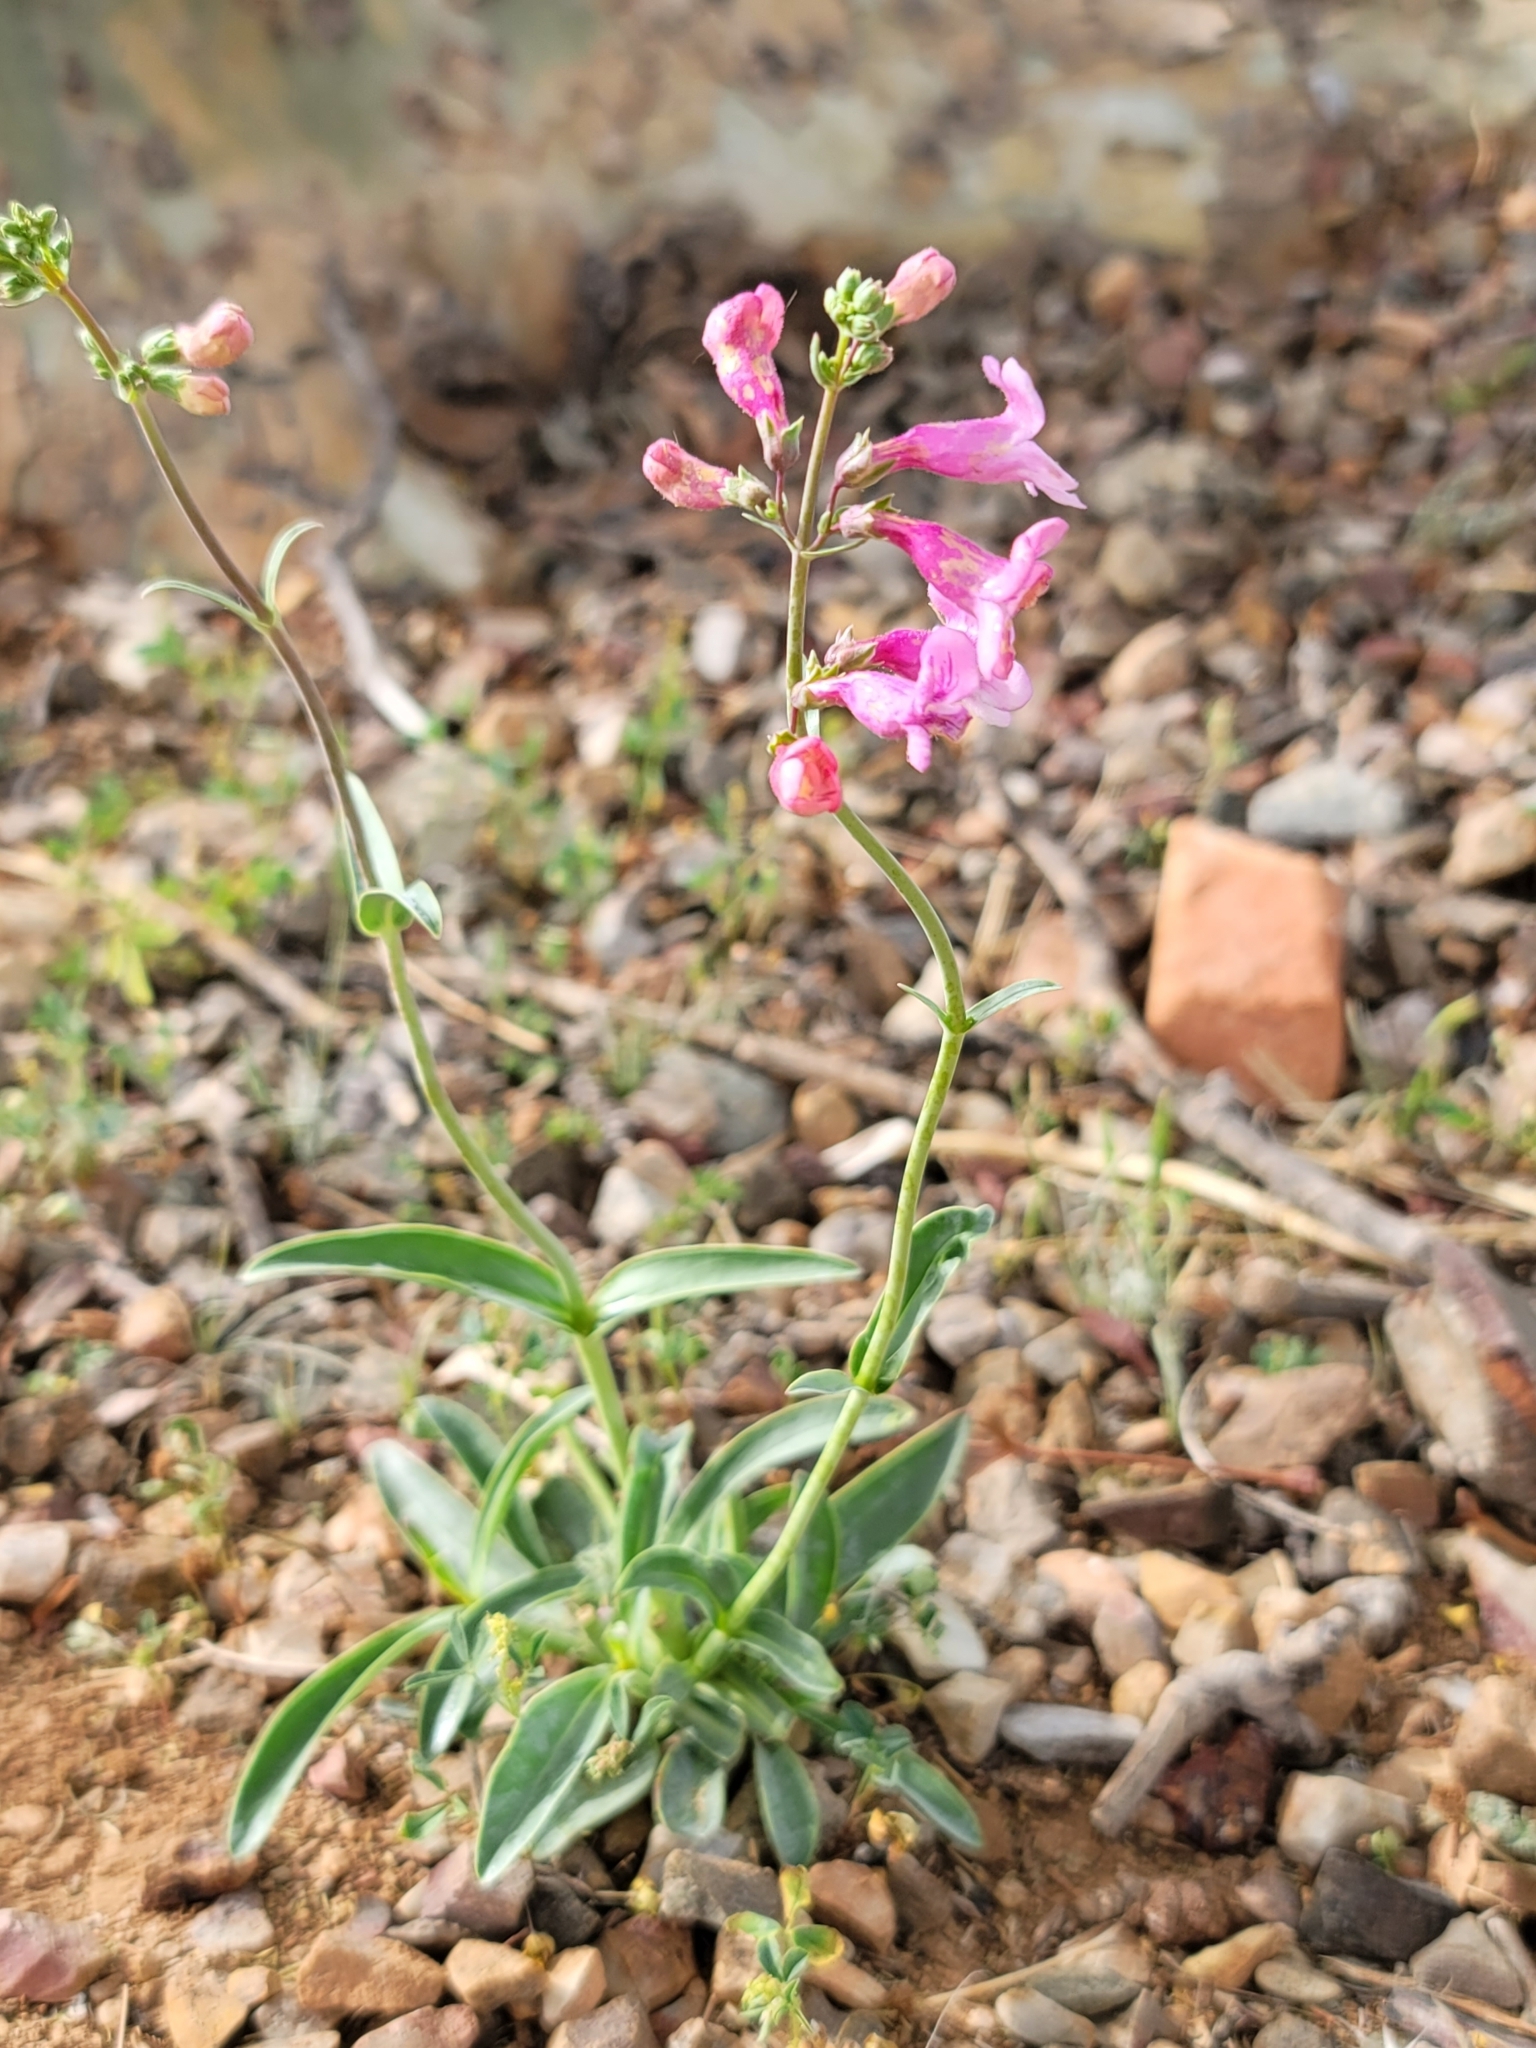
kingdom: Plantae
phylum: Tracheophyta
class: Magnoliopsida
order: Lamiales
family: Plantaginaceae
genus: Penstemon
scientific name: Penstemon parryi
